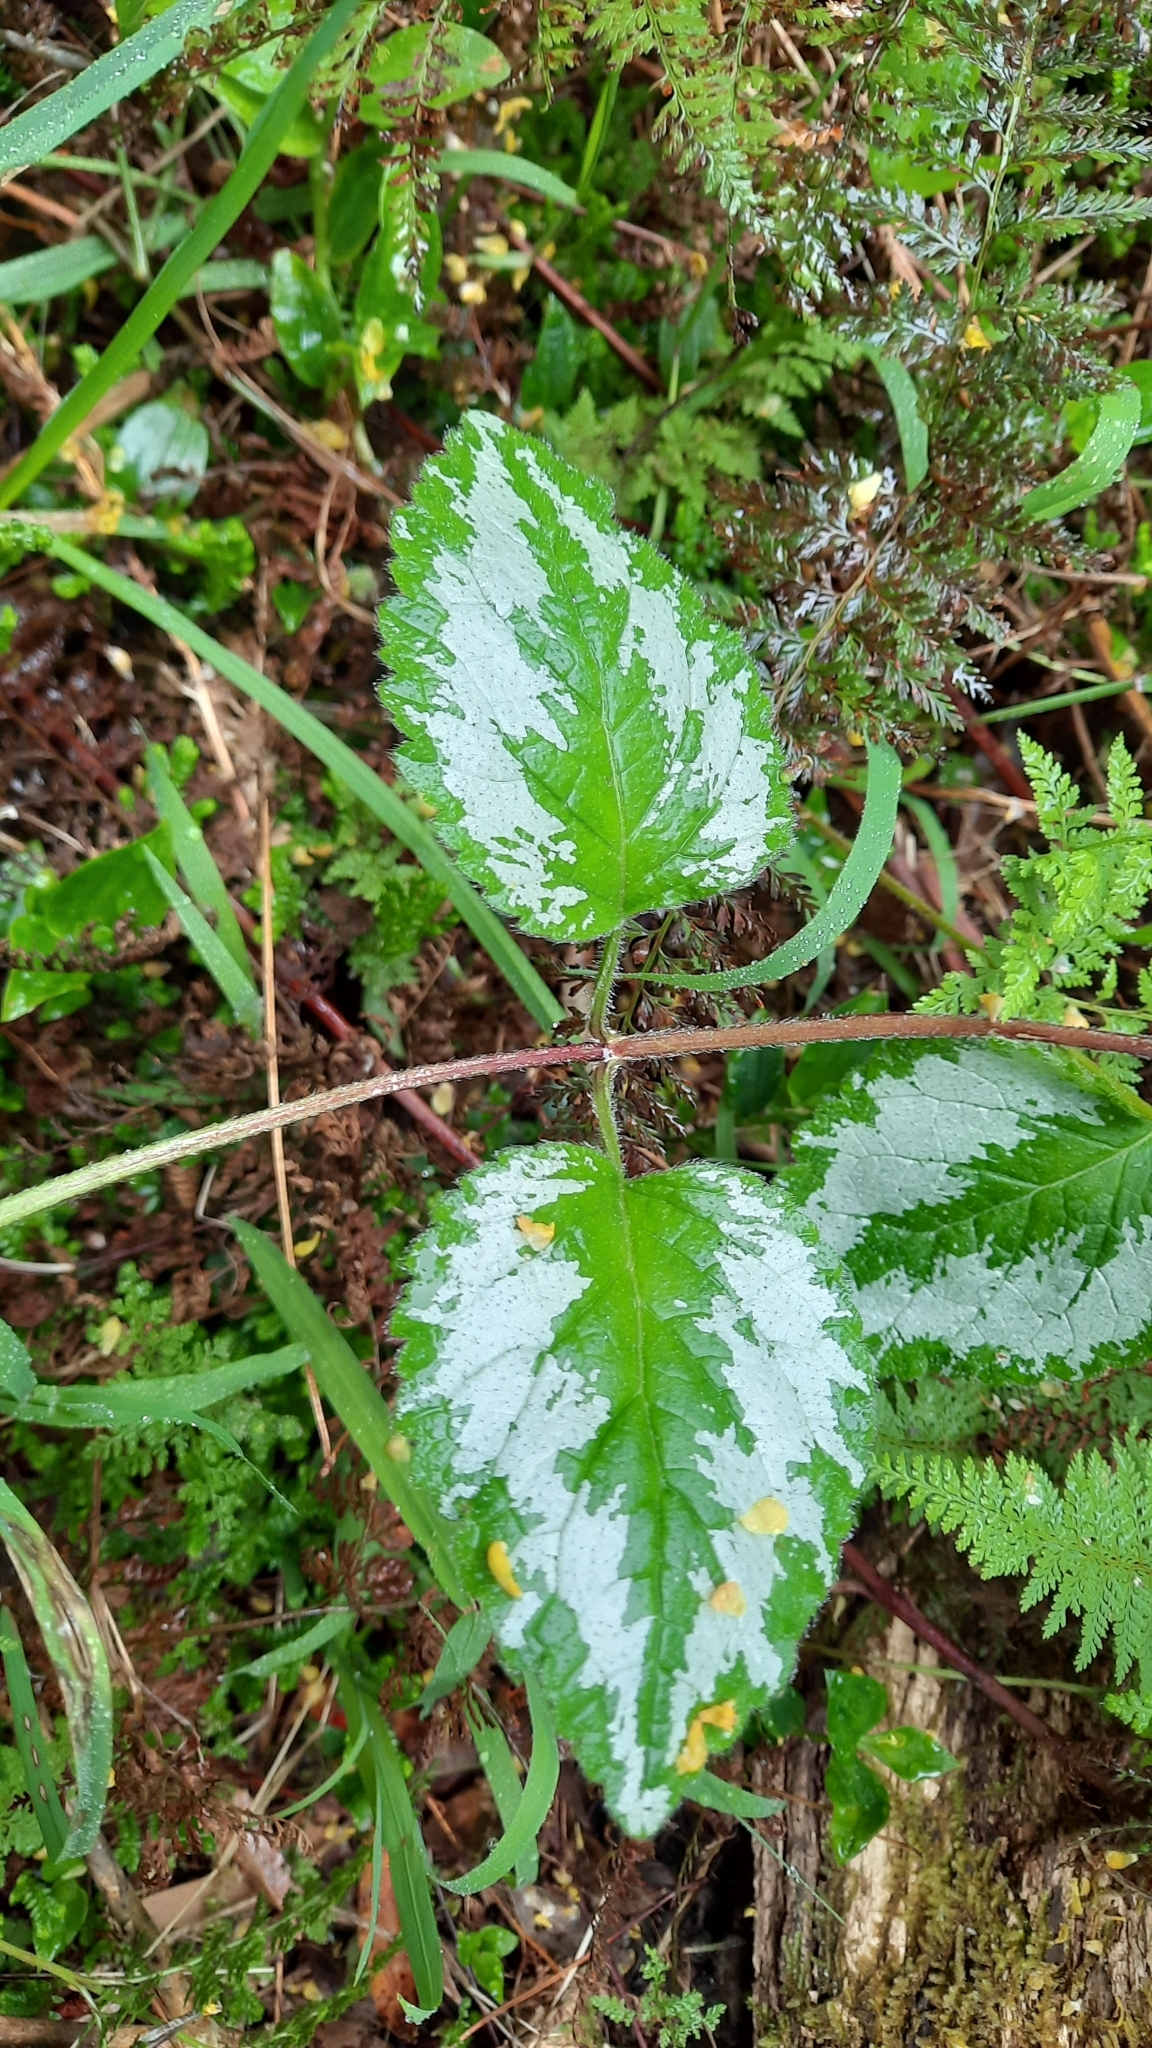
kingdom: Plantae
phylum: Tracheophyta
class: Magnoliopsida
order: Lamiales
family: Lamiaceae
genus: Lamium
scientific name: Lamium galeobdolon
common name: Yellow archangel
